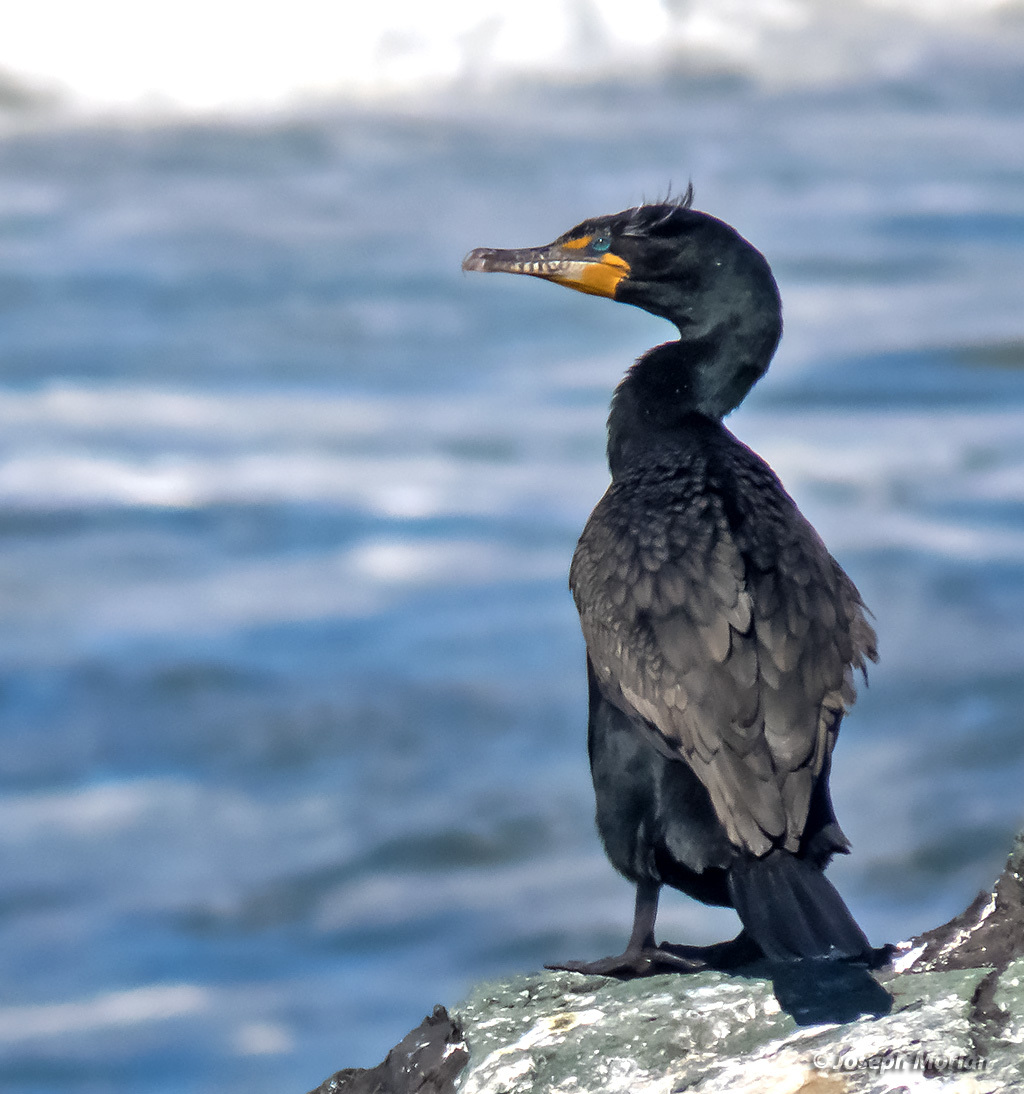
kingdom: Animalia
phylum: Chordata
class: Aves
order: Suliformes
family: Phalacrocoracidae
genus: Phalacrocorax
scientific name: Phalacrocorax auritus
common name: Double-crested cormorant
